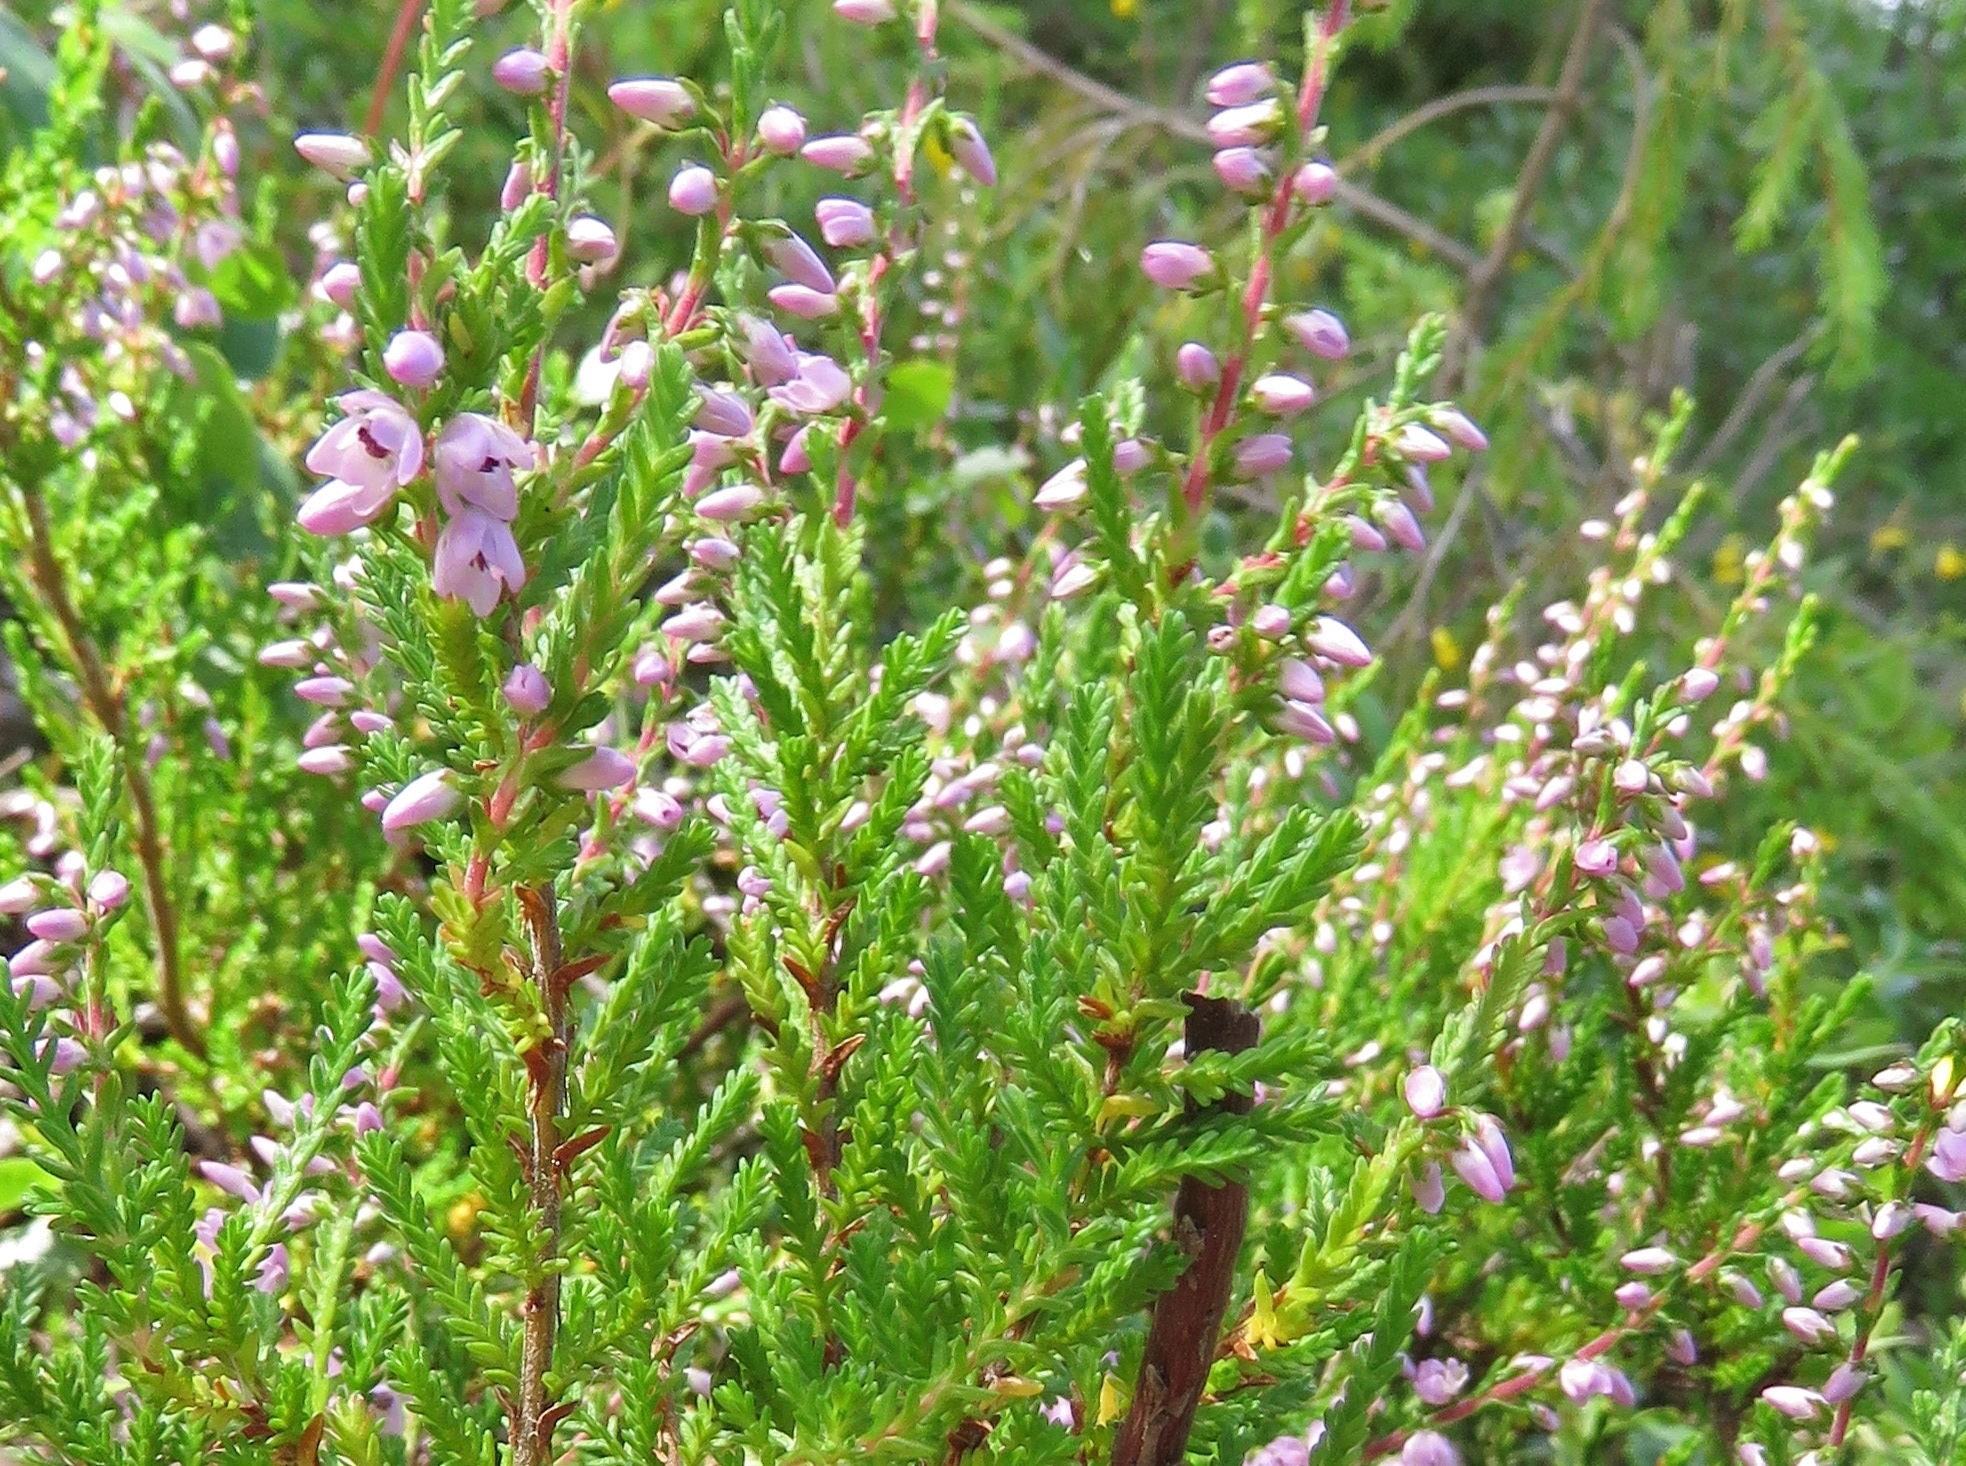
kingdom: Plantae
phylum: Tracheophyta
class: Magnoliopsida
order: Ericales
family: Ericaceae
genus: Calluna
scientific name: Calluna vulgaris
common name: Heather
